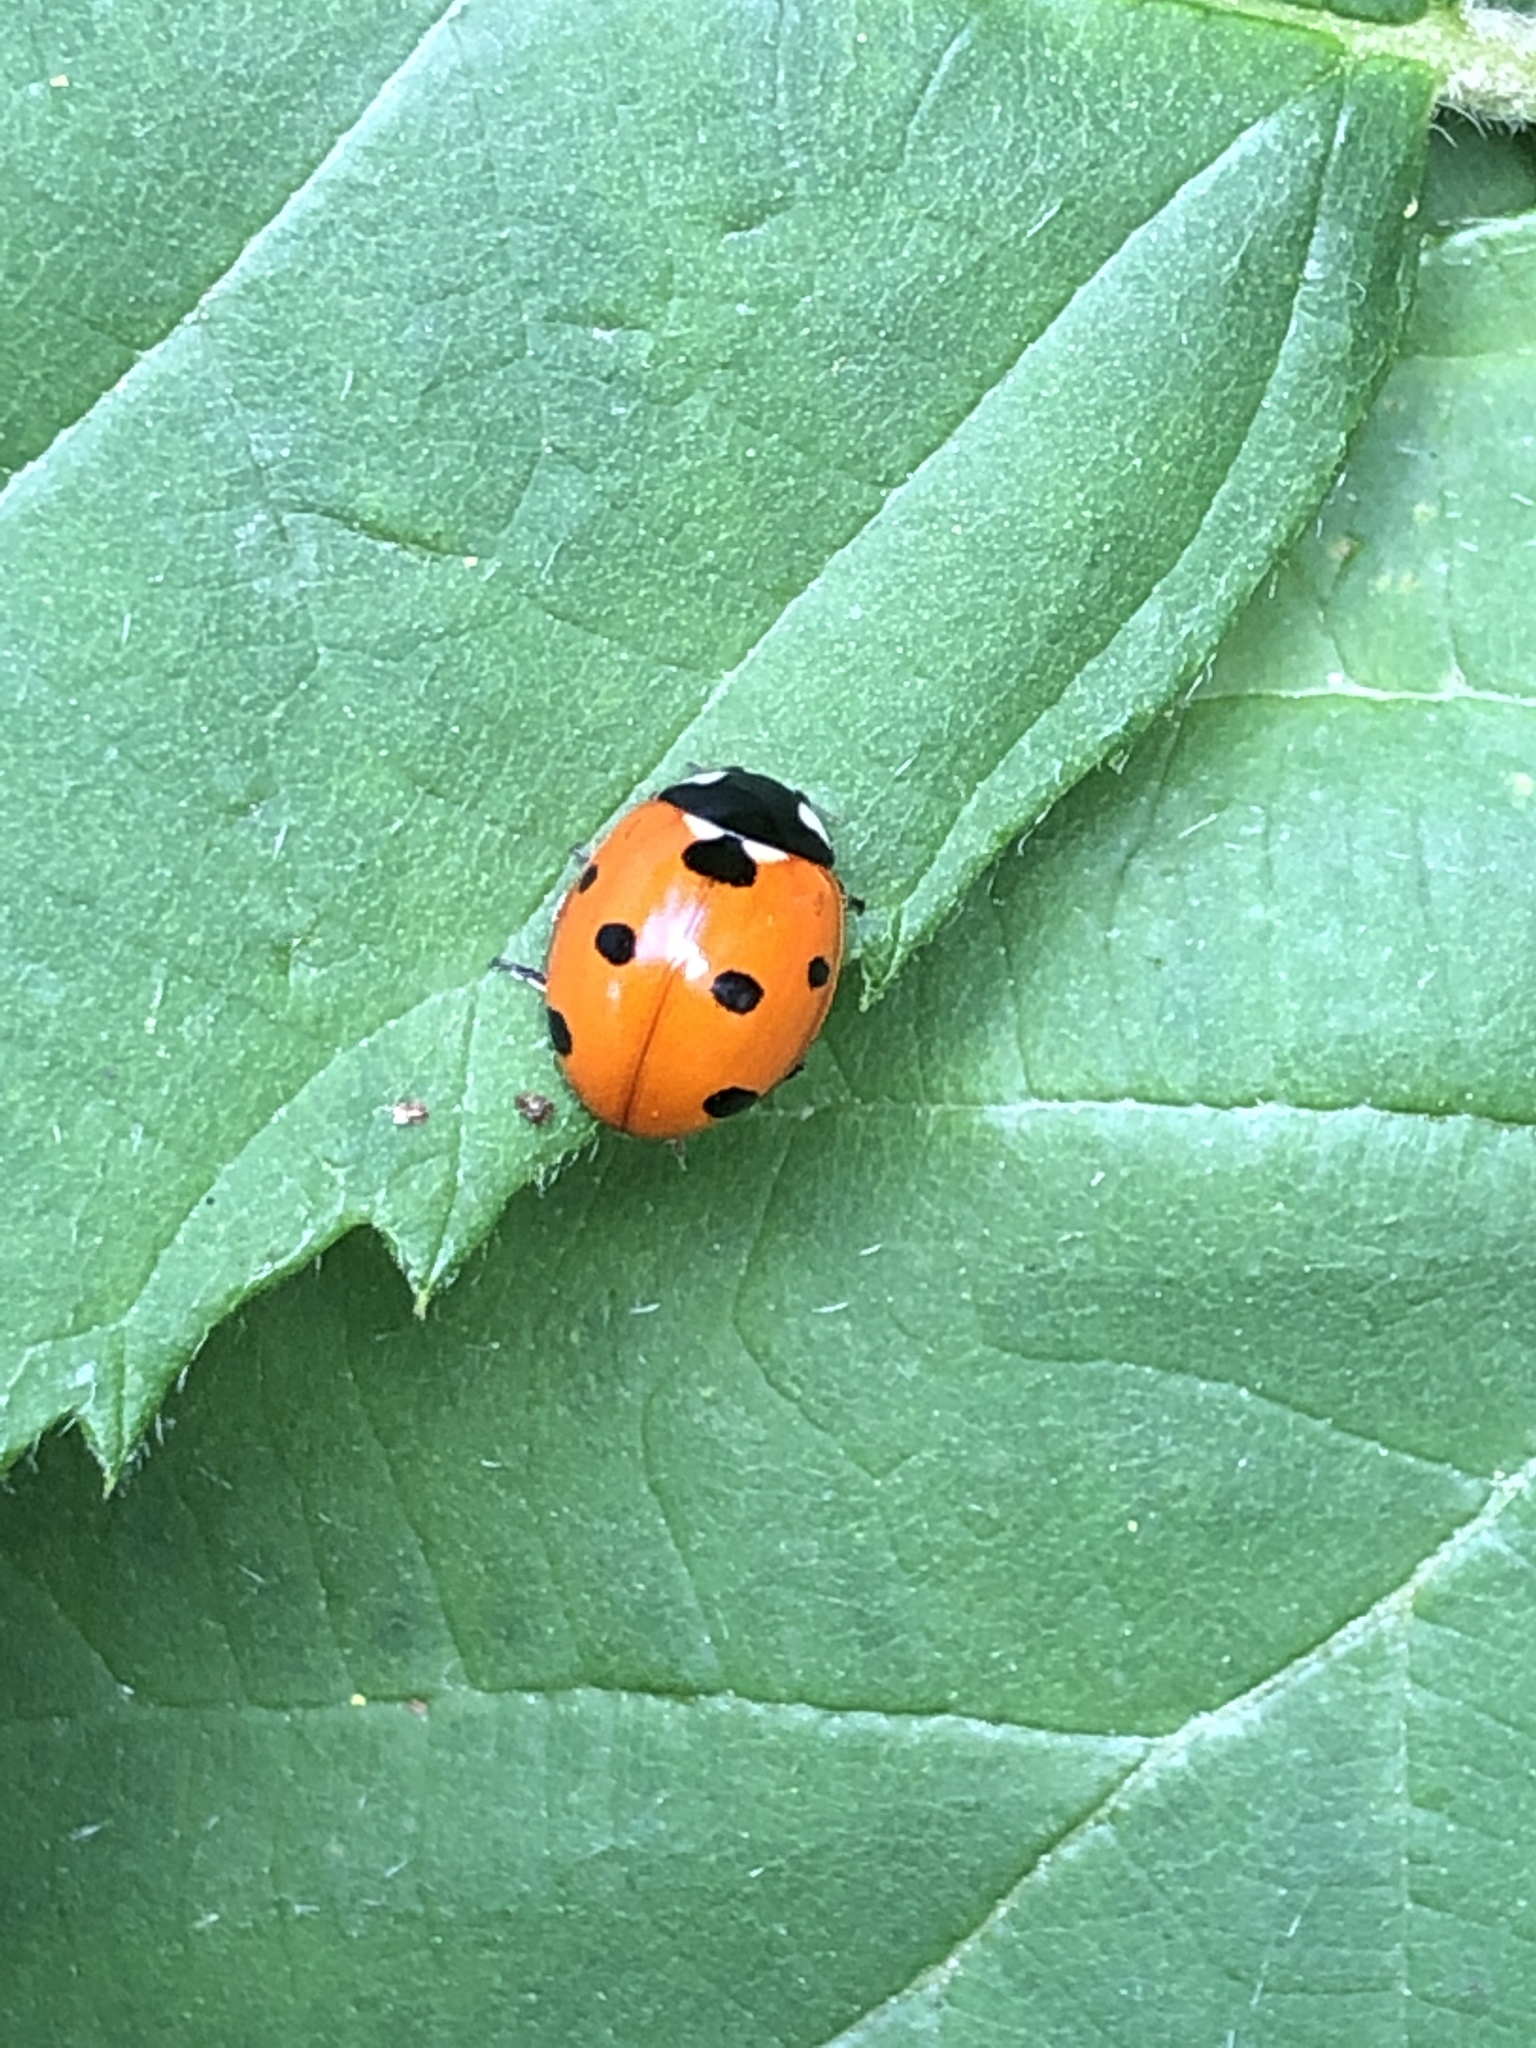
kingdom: Animalia
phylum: Arthropoda
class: Insecta
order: Coleoptera
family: Coccinellidae
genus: Coccinella
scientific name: Coccinella septempunctata
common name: Sevenspotted lady beetle
